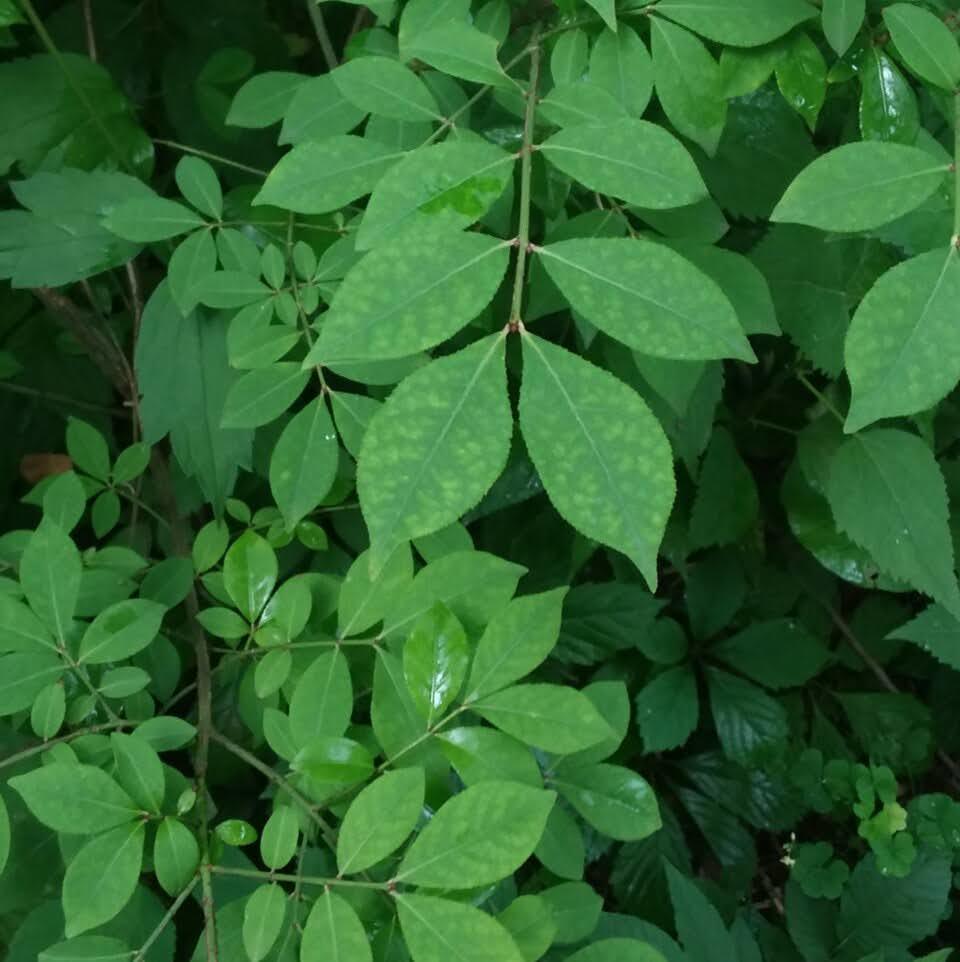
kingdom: Plantae
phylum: Tracheophyta
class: Magnoliopsida
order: Celastrales
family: Celastraceae
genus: Euonymus
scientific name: Euonymus alatus
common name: Winged euonymus
